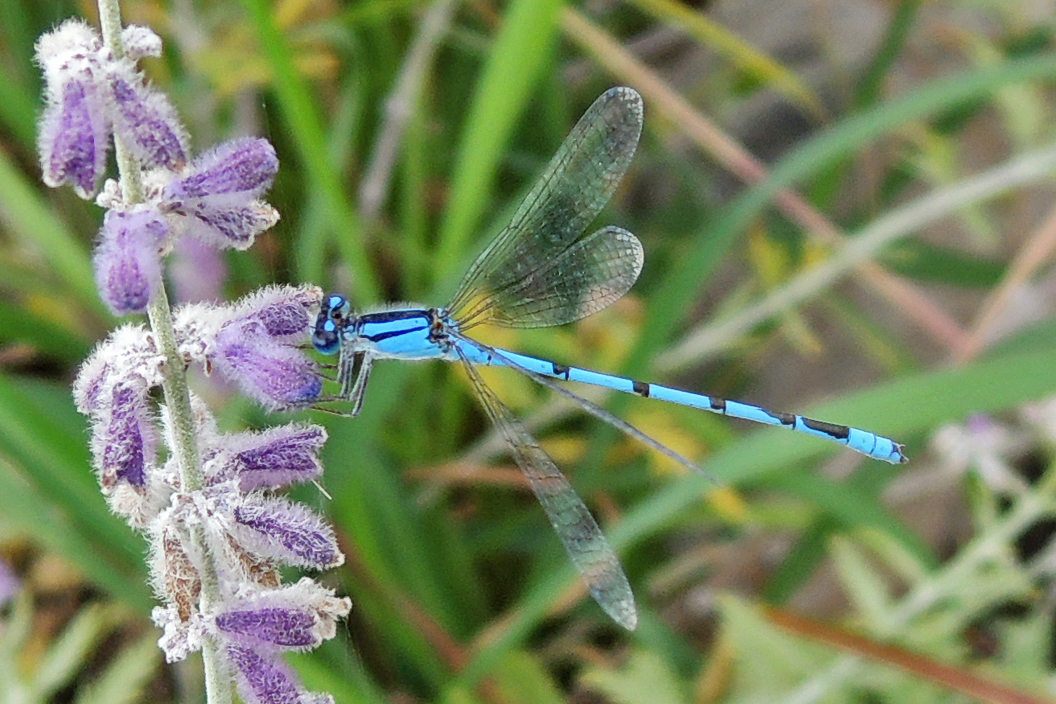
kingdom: Animalia
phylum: Arthropoda
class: Insecta
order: Odonata
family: Coenagrionidae
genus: Enallagma
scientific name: Enallagma civile
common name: Damselfly
